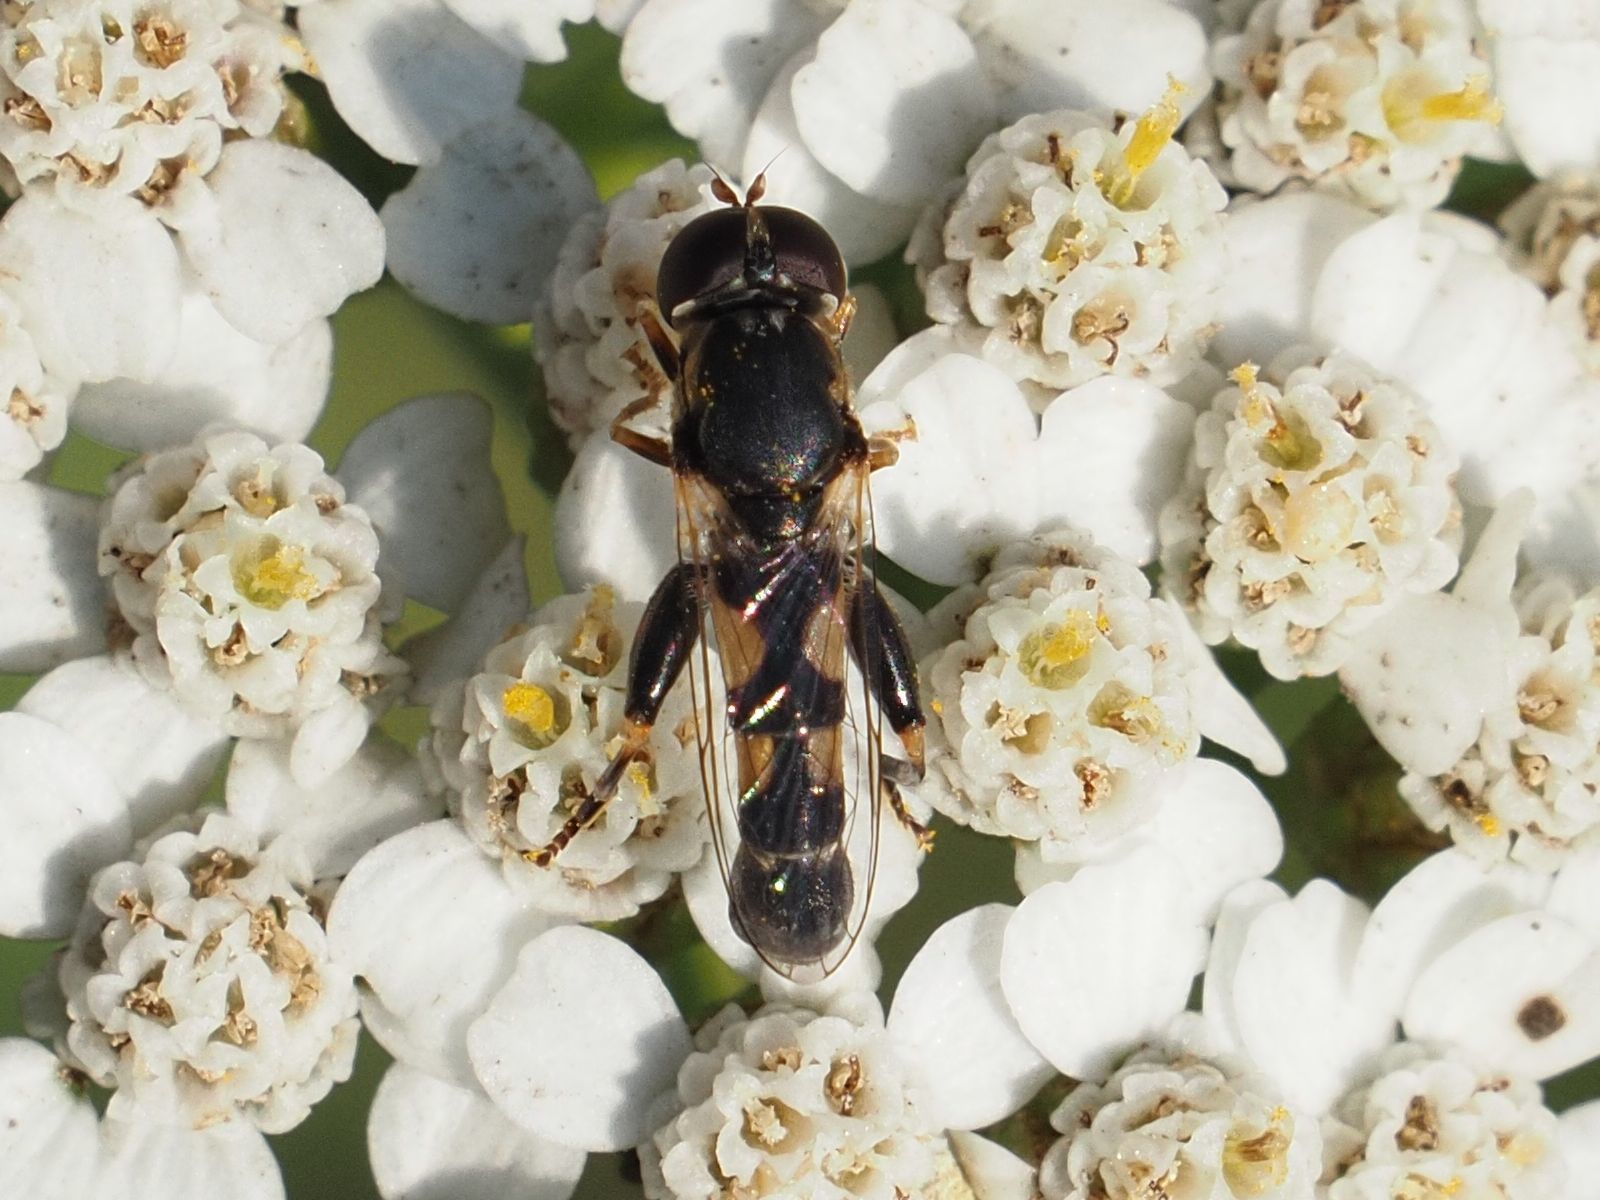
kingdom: Animalia
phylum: Arthropoda
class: Insecta
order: Diptera
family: Syrphidae
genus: Syritta
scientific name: Syritta pipiens
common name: Hover fly
